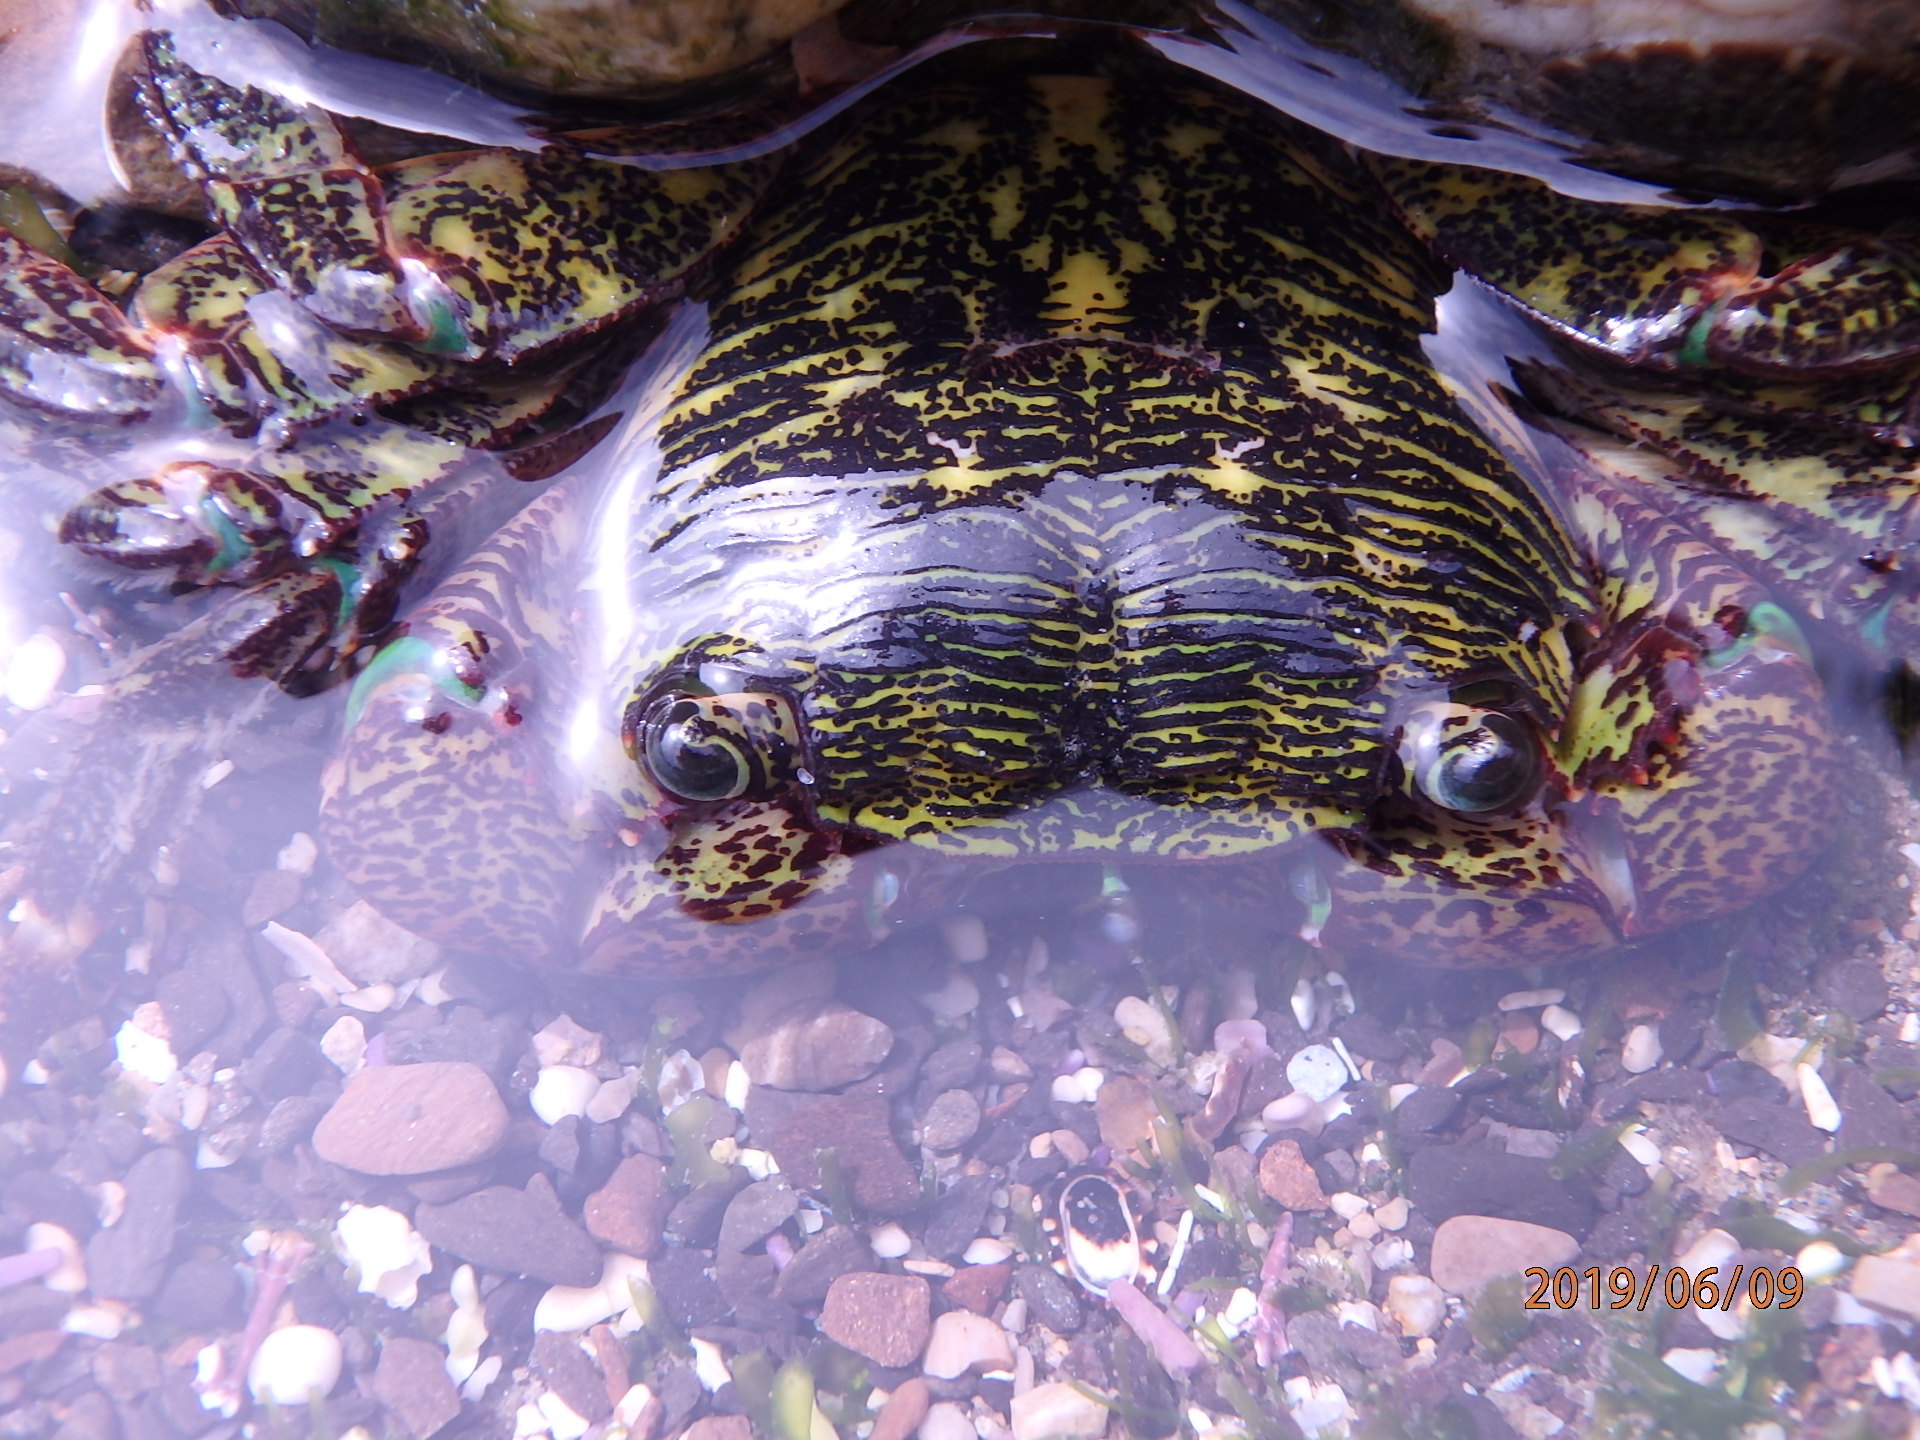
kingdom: Animalia
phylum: Arthropoda
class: Malacostraca
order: Decapoda
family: Grapsidae
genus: Pachygrapsus
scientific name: Pachygrapsus crassipes
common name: Striped shore crab
